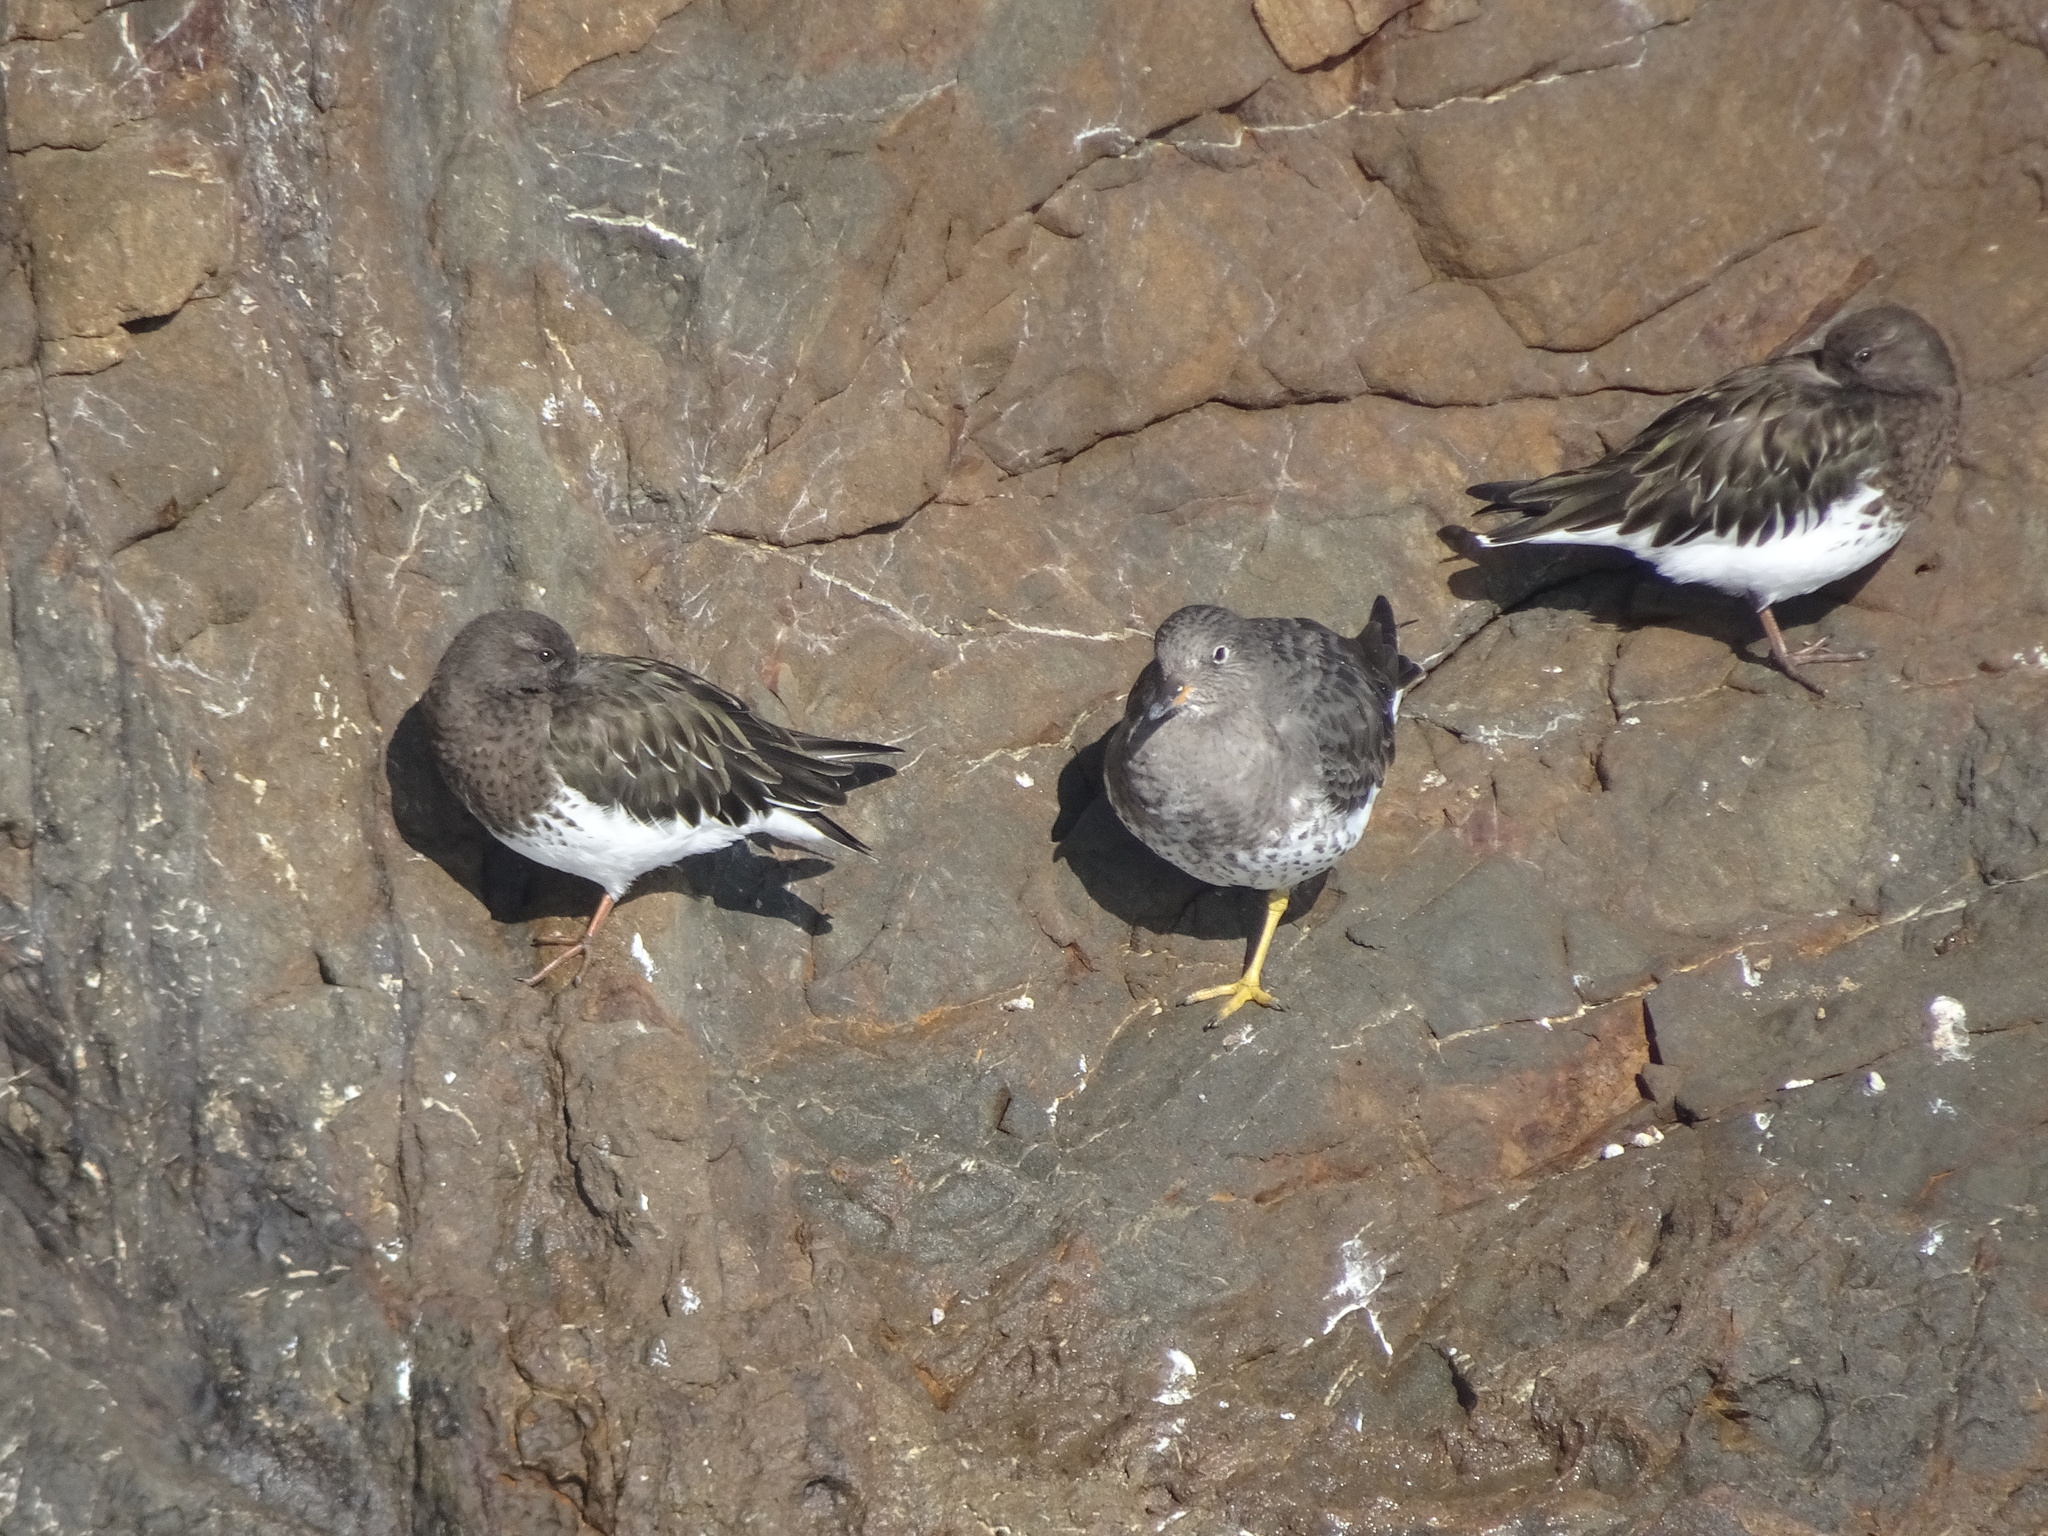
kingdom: Animalia
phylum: Chordata
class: Aves
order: Charadriiformes
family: Scolopacidae
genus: Calidris
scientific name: Calidris virgata
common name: Surfbird
